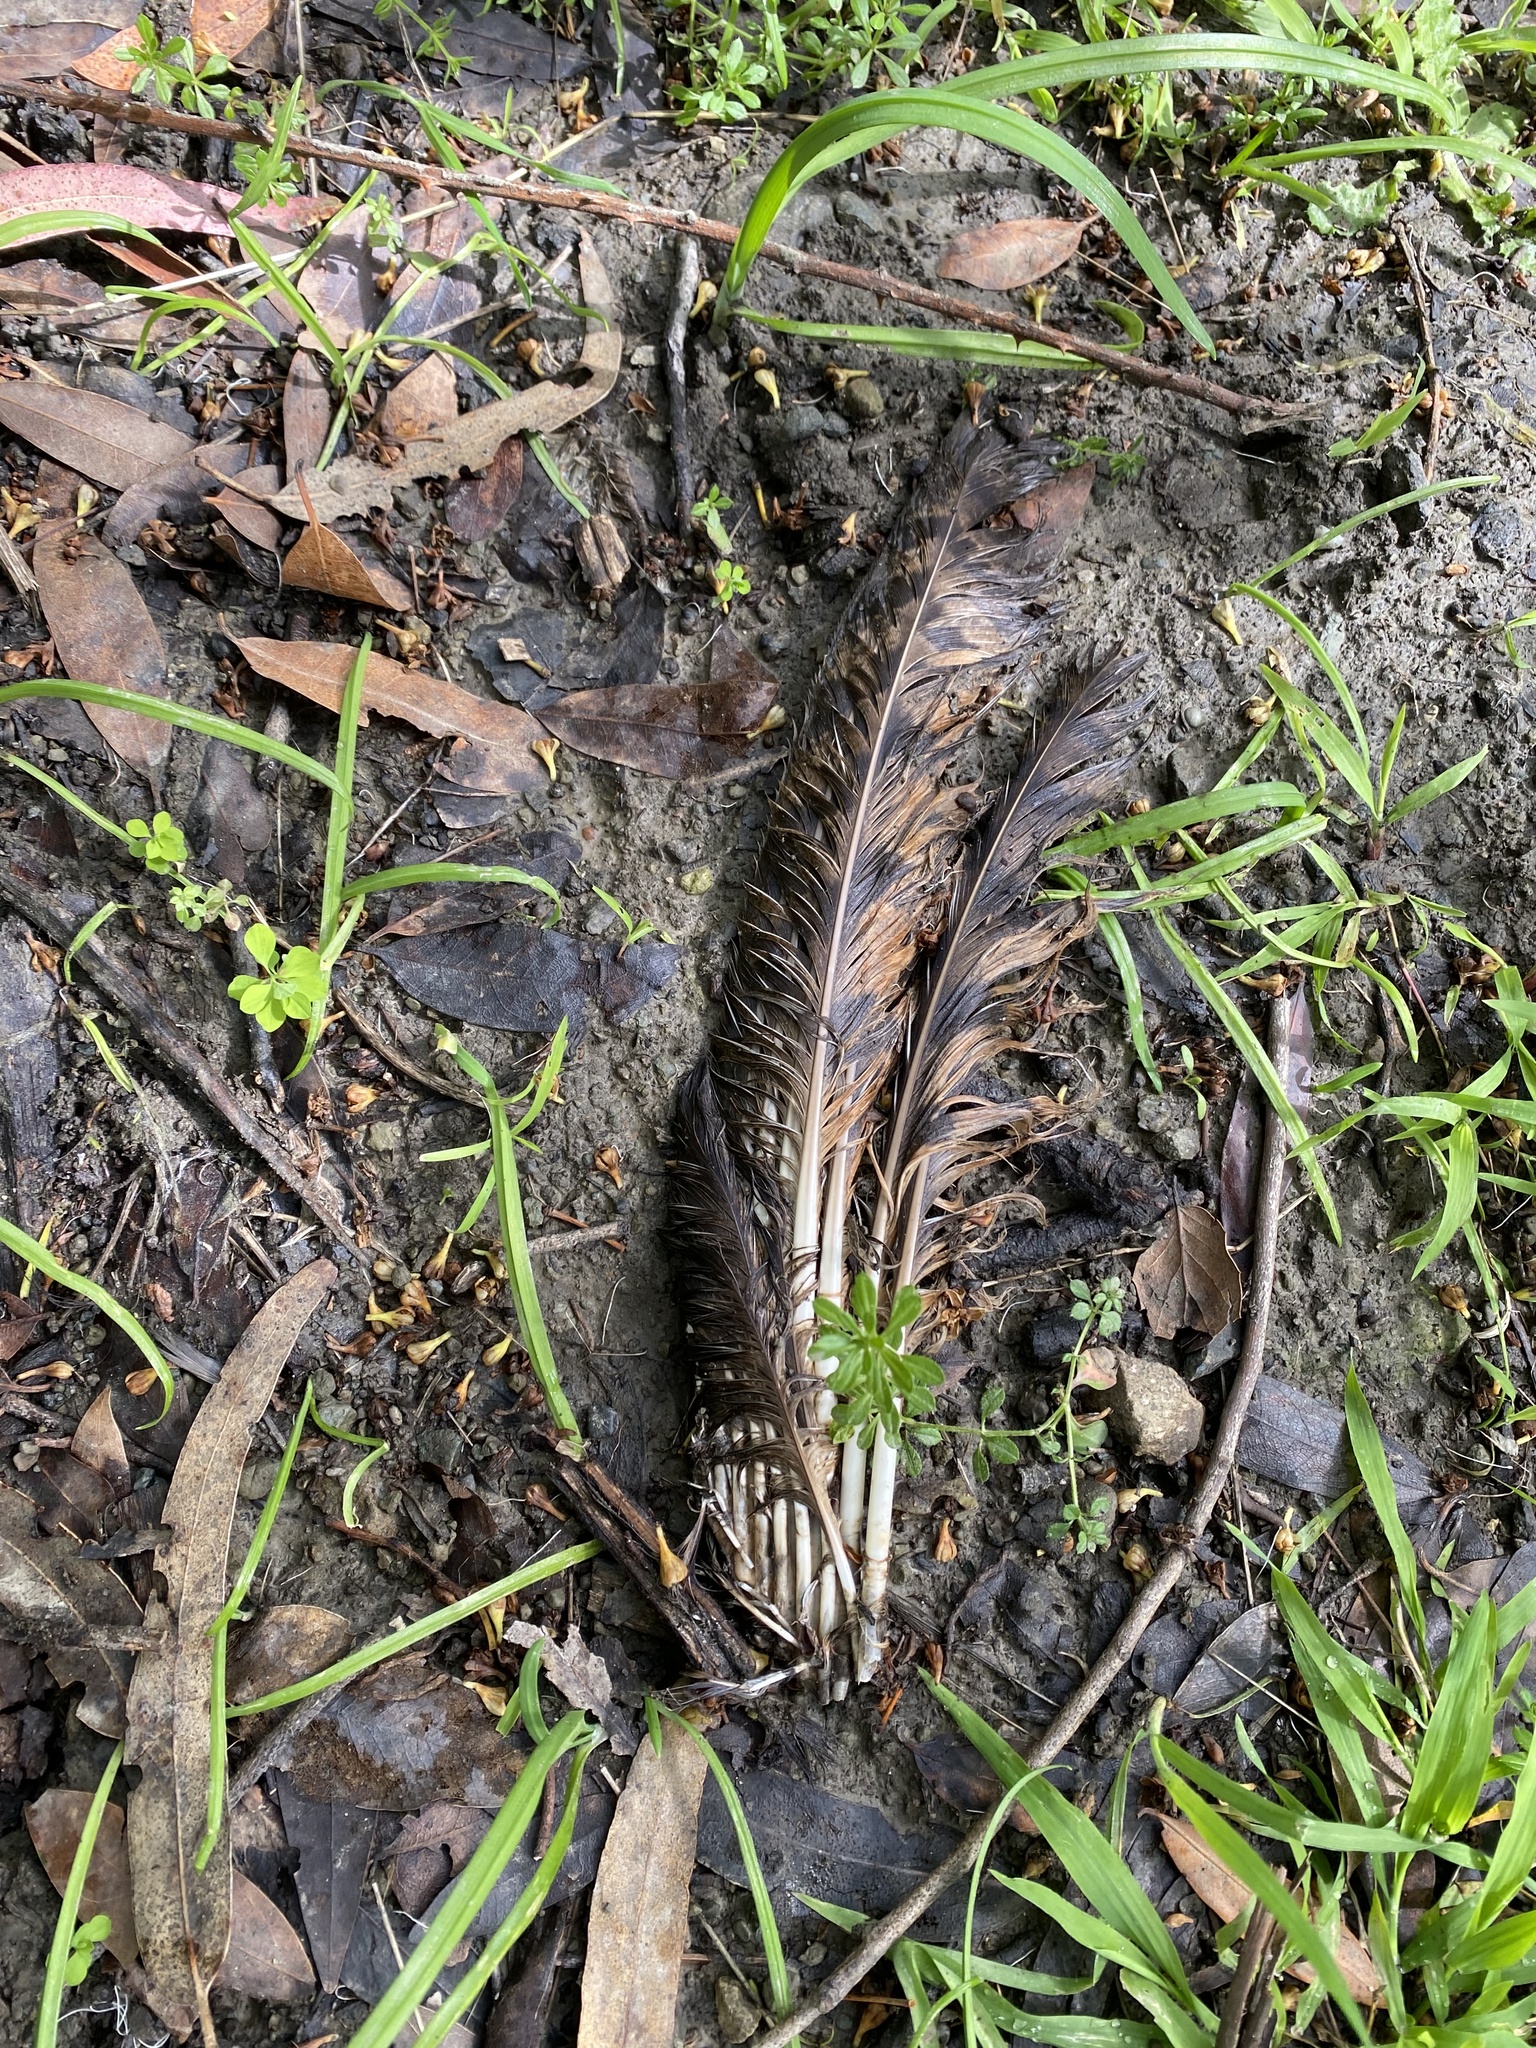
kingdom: Animalia
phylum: Chordata
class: Aves
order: Strigiformes
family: Strigidae
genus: Bubo
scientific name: Bubo virginianus
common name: Great horned owl
